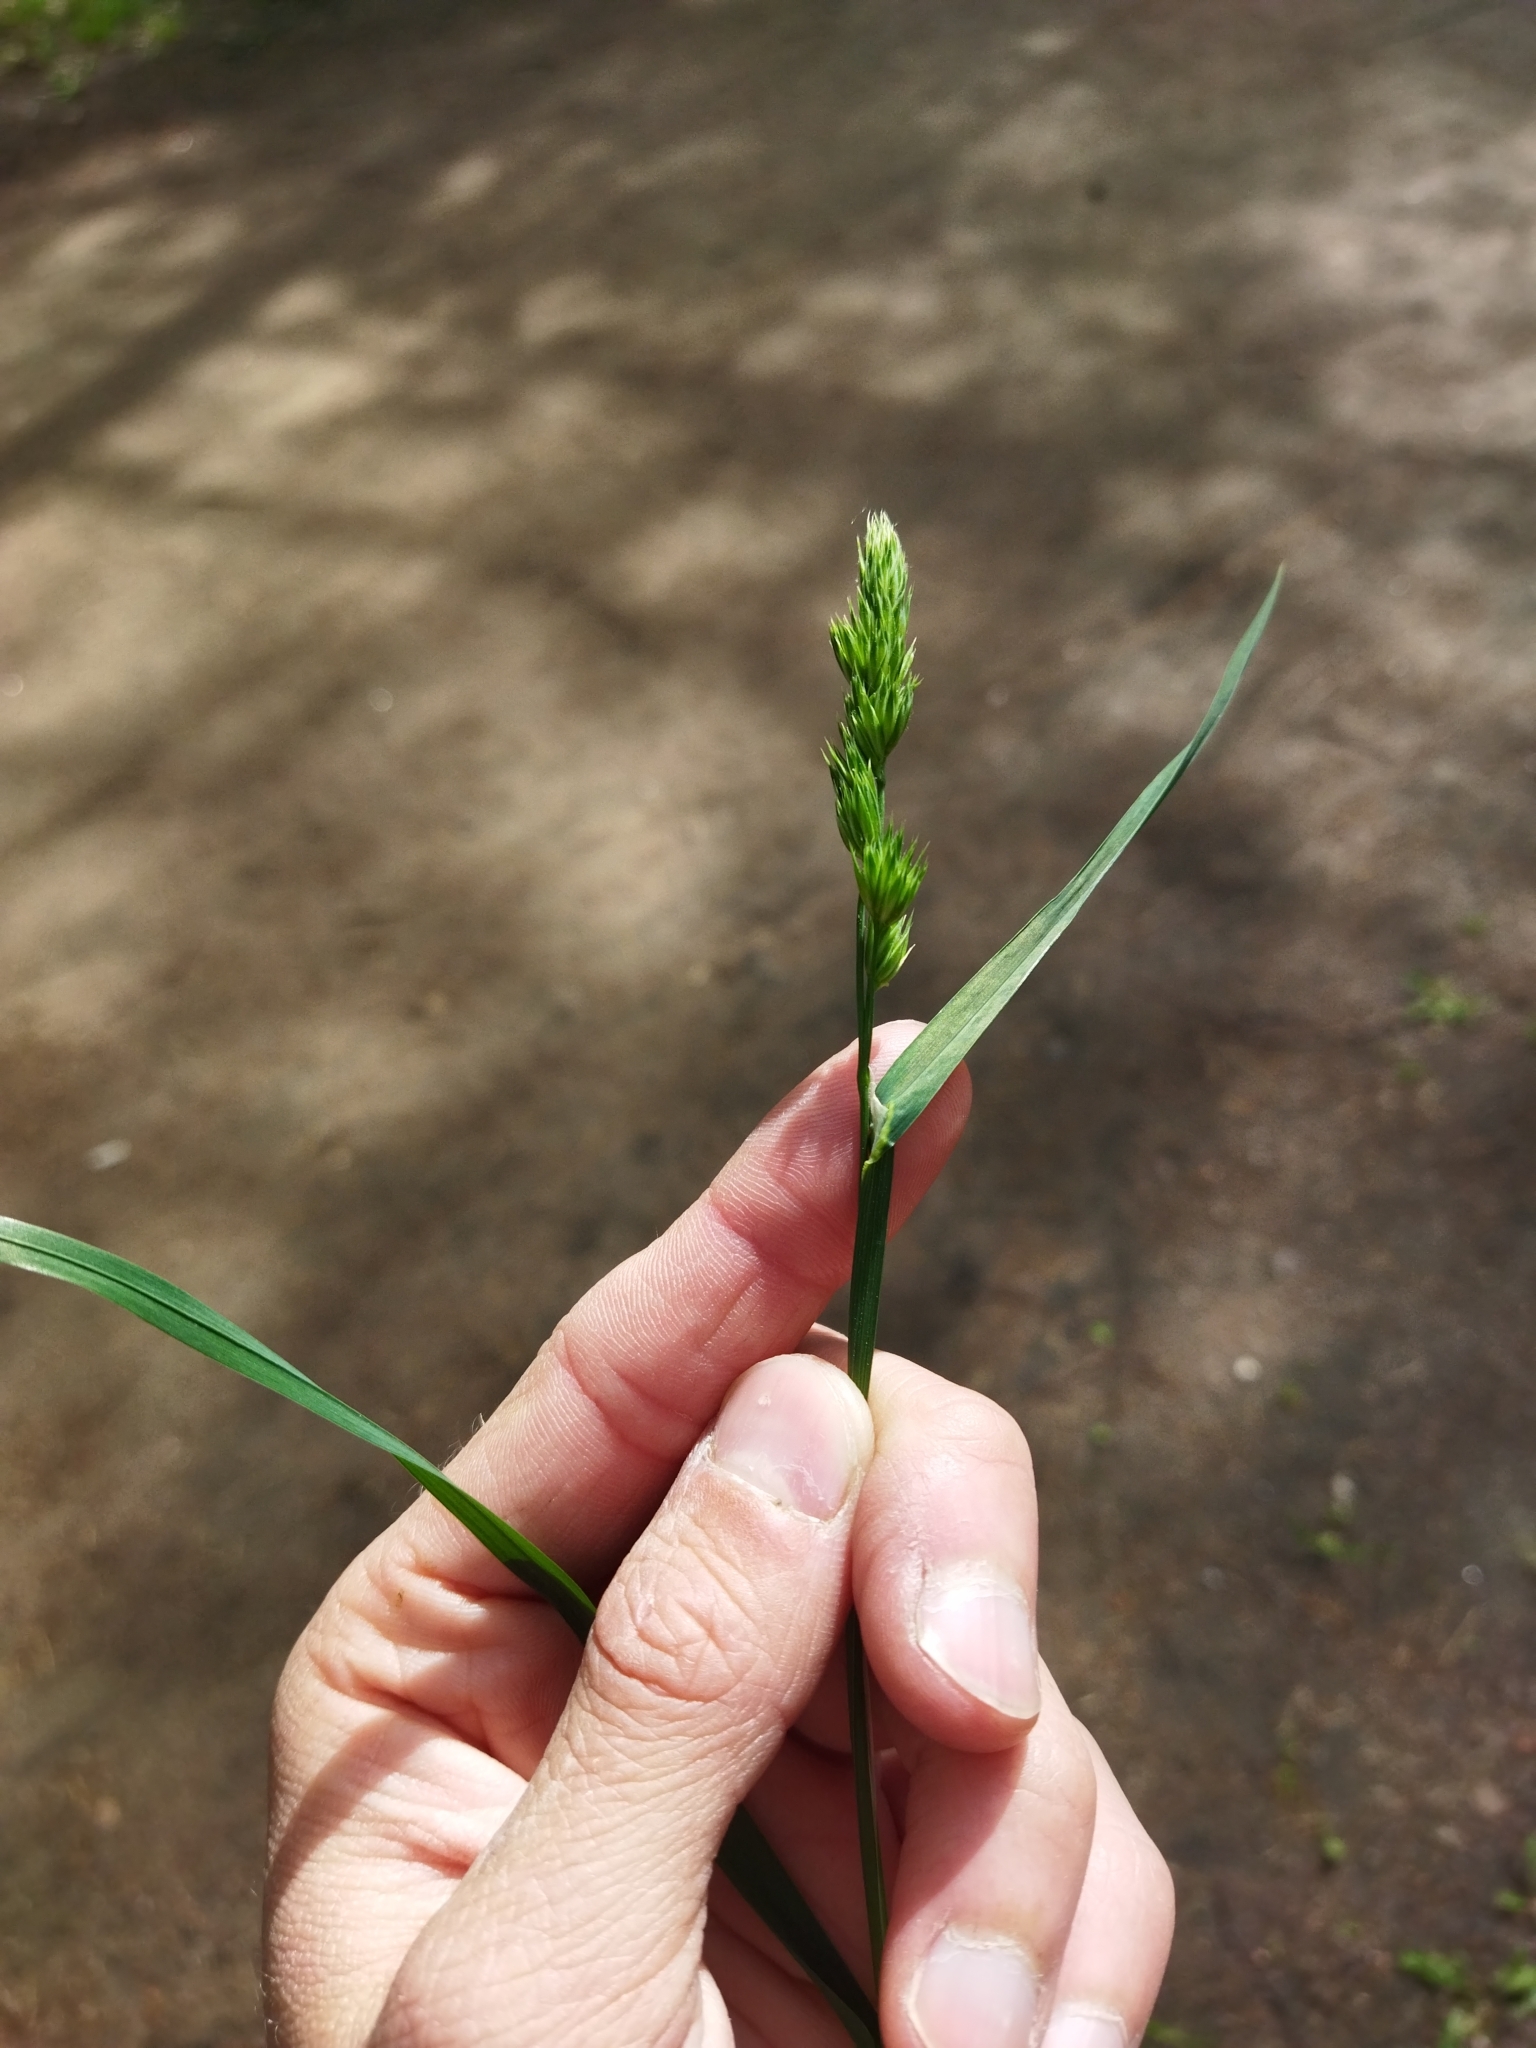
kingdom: Plantae
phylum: Tracheophyta
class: Liliopsida
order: Poales
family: Poaceae
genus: Dactylis
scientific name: Dactylis glomerata
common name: Orchardgrass
